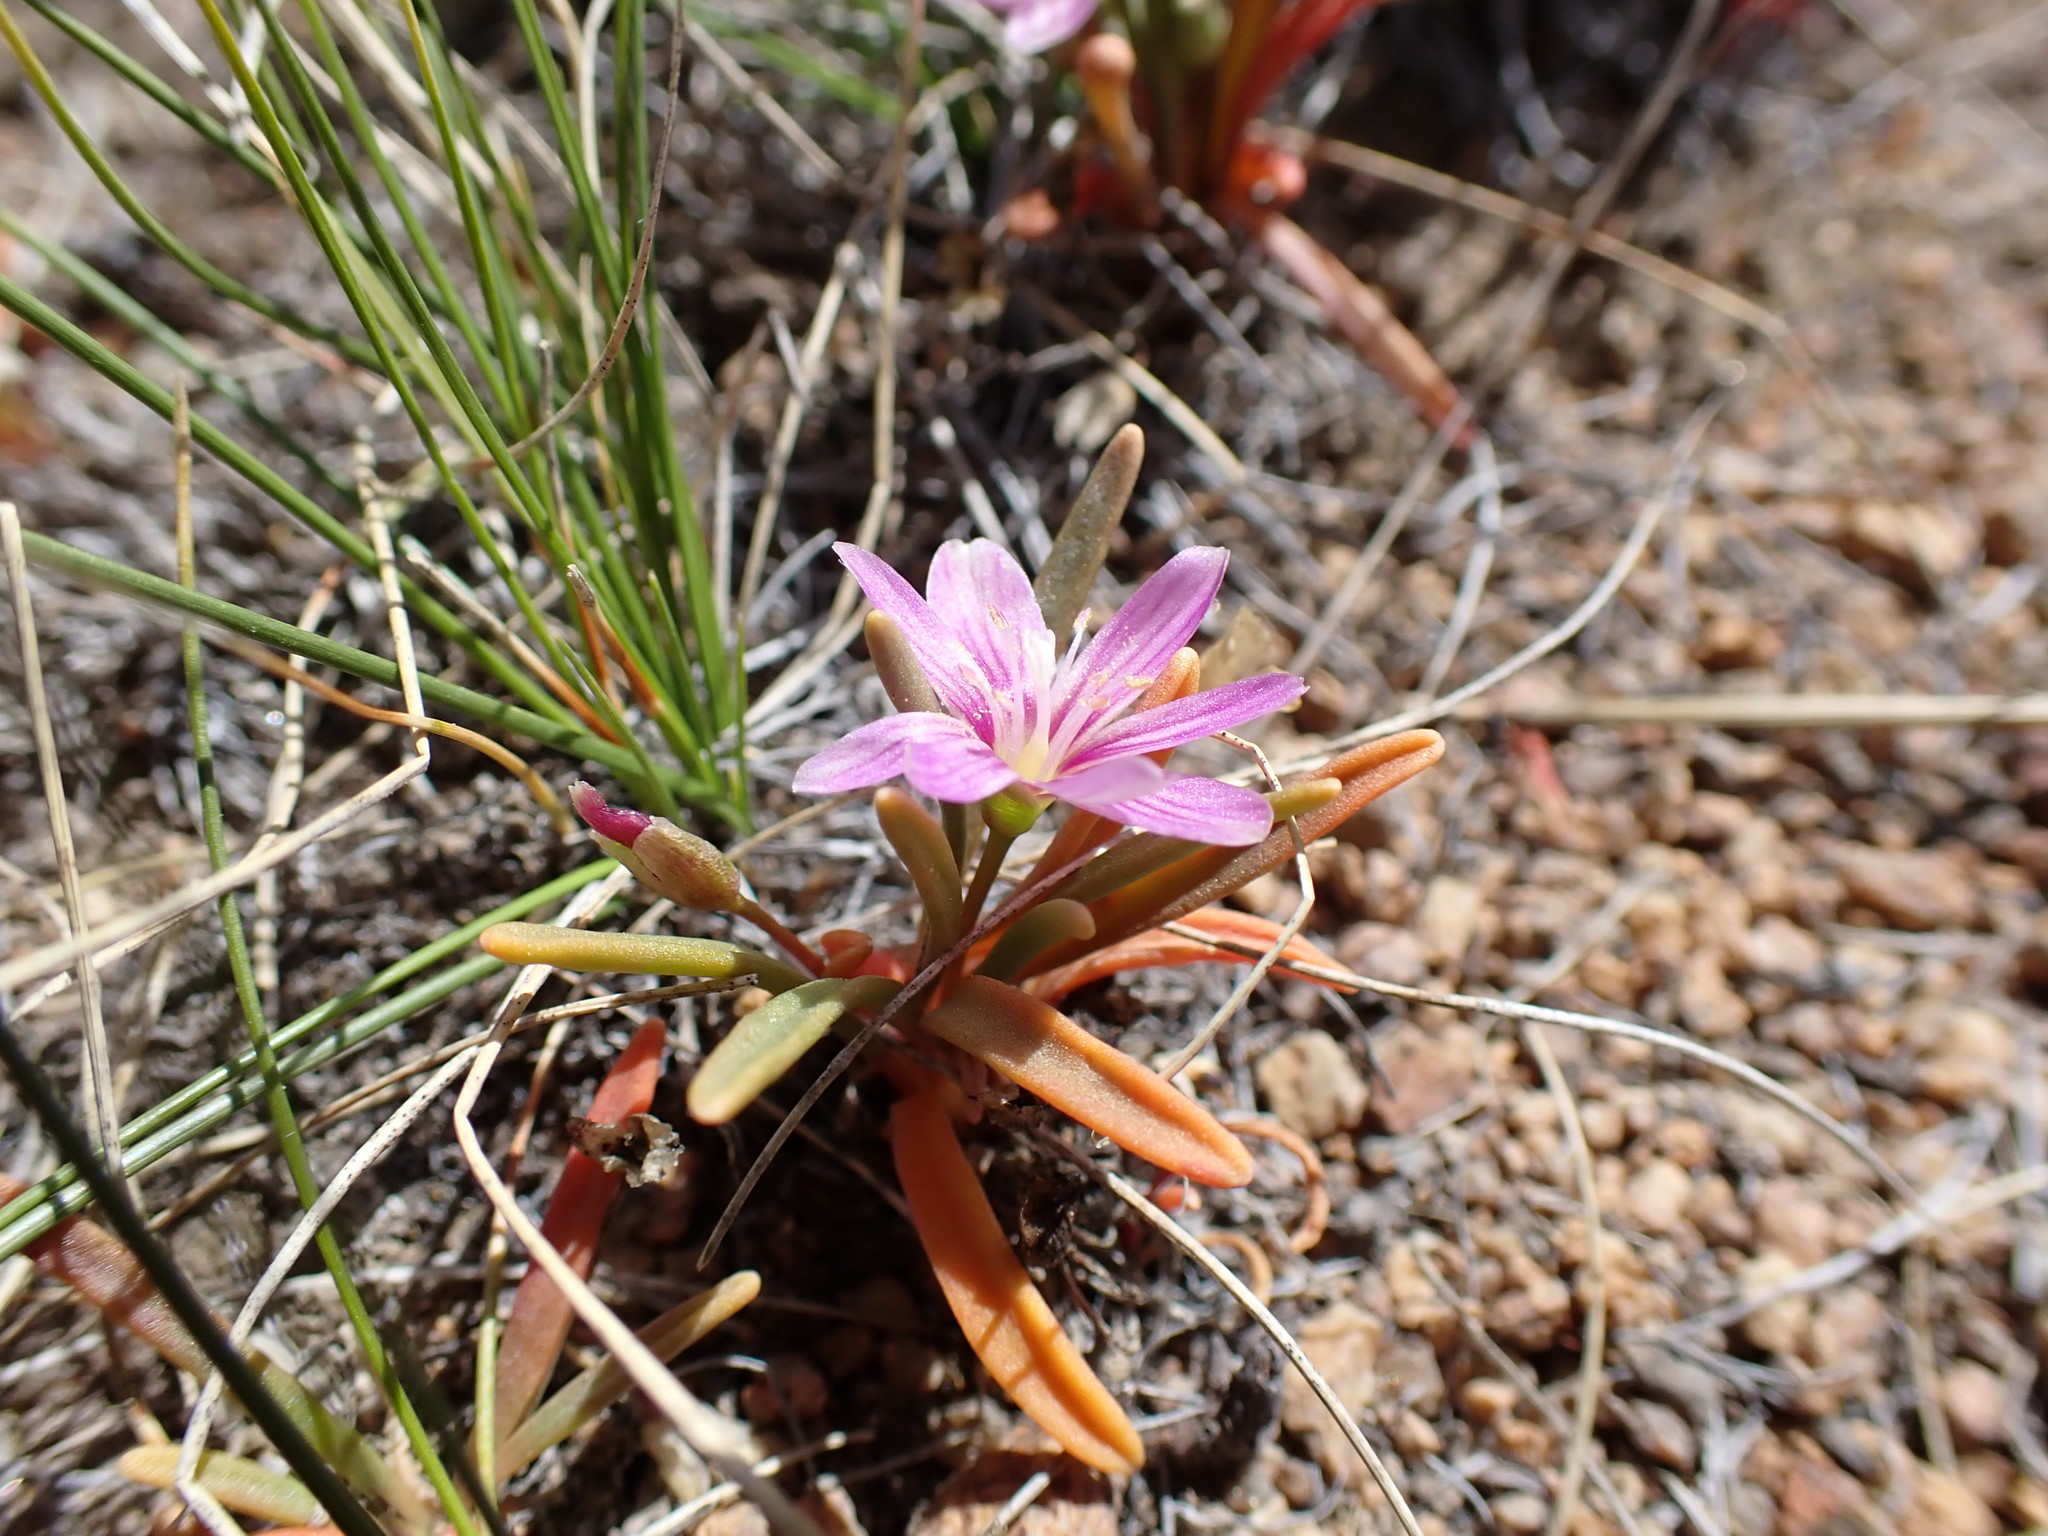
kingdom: Plantae
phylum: Tracheophyta
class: Magnoliopsida
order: Caryophyllales
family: Montiaceae
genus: Lewisia
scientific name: Lewisia pygmaea
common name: Alpine bitterroot
